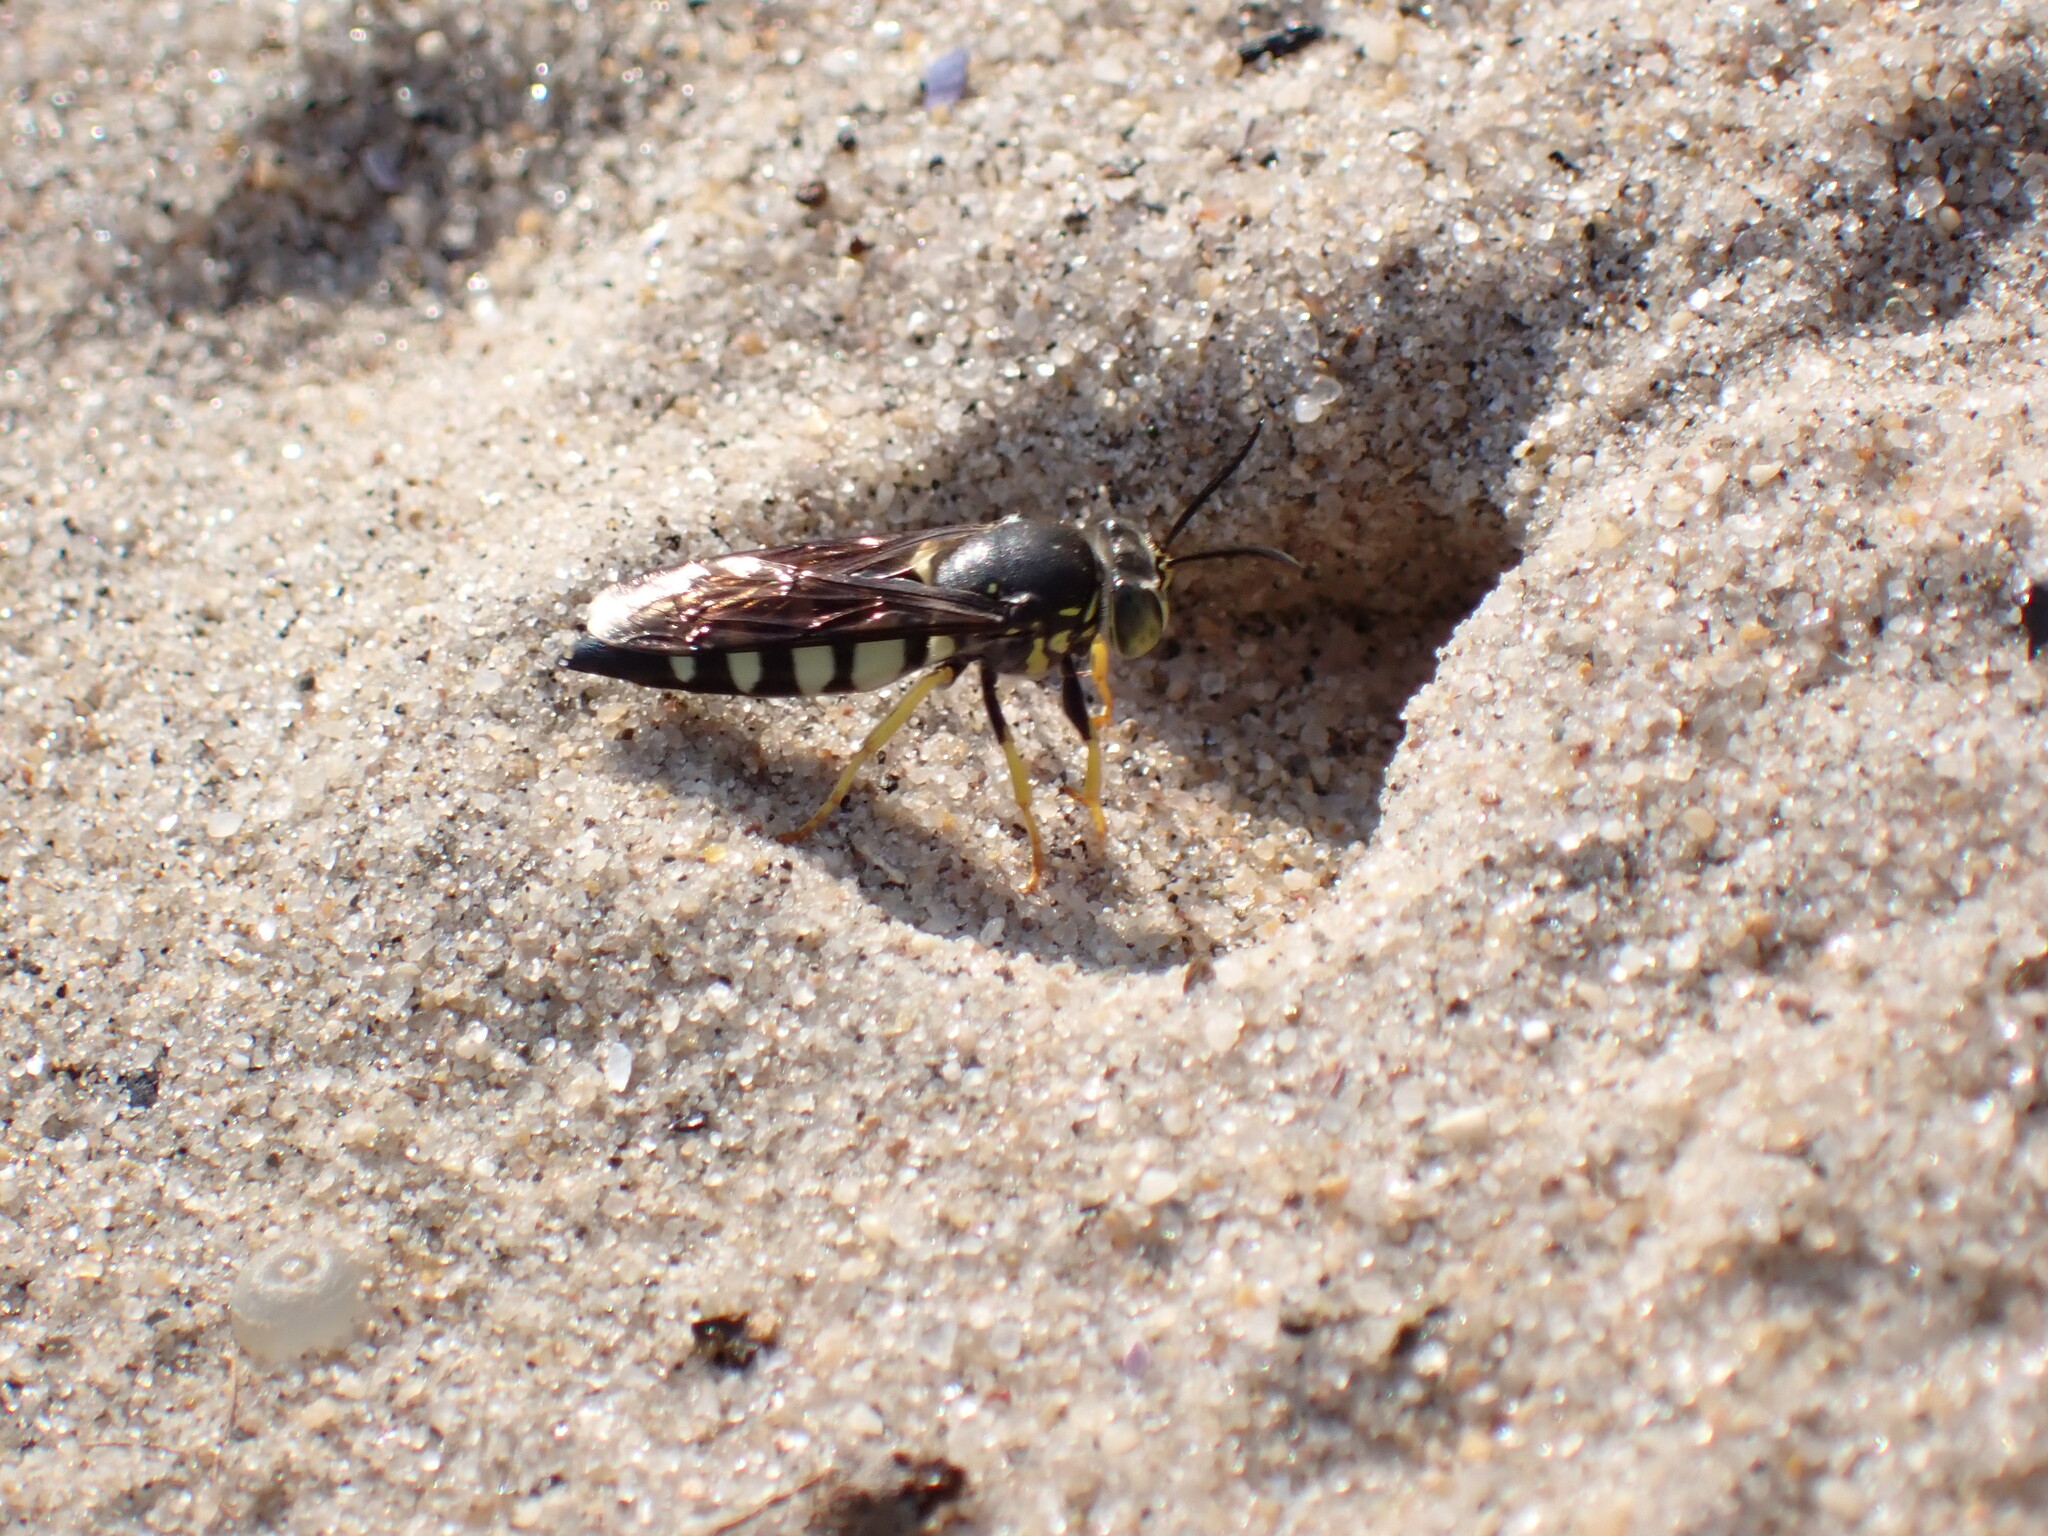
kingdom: Animalia
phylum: Arthropoda
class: Insecta
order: Hymenoptera
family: Crabronidae
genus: Bicyrtes
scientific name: Bicyrtes quadrifasciatus
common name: Four-banded stink bug hunter wasp
